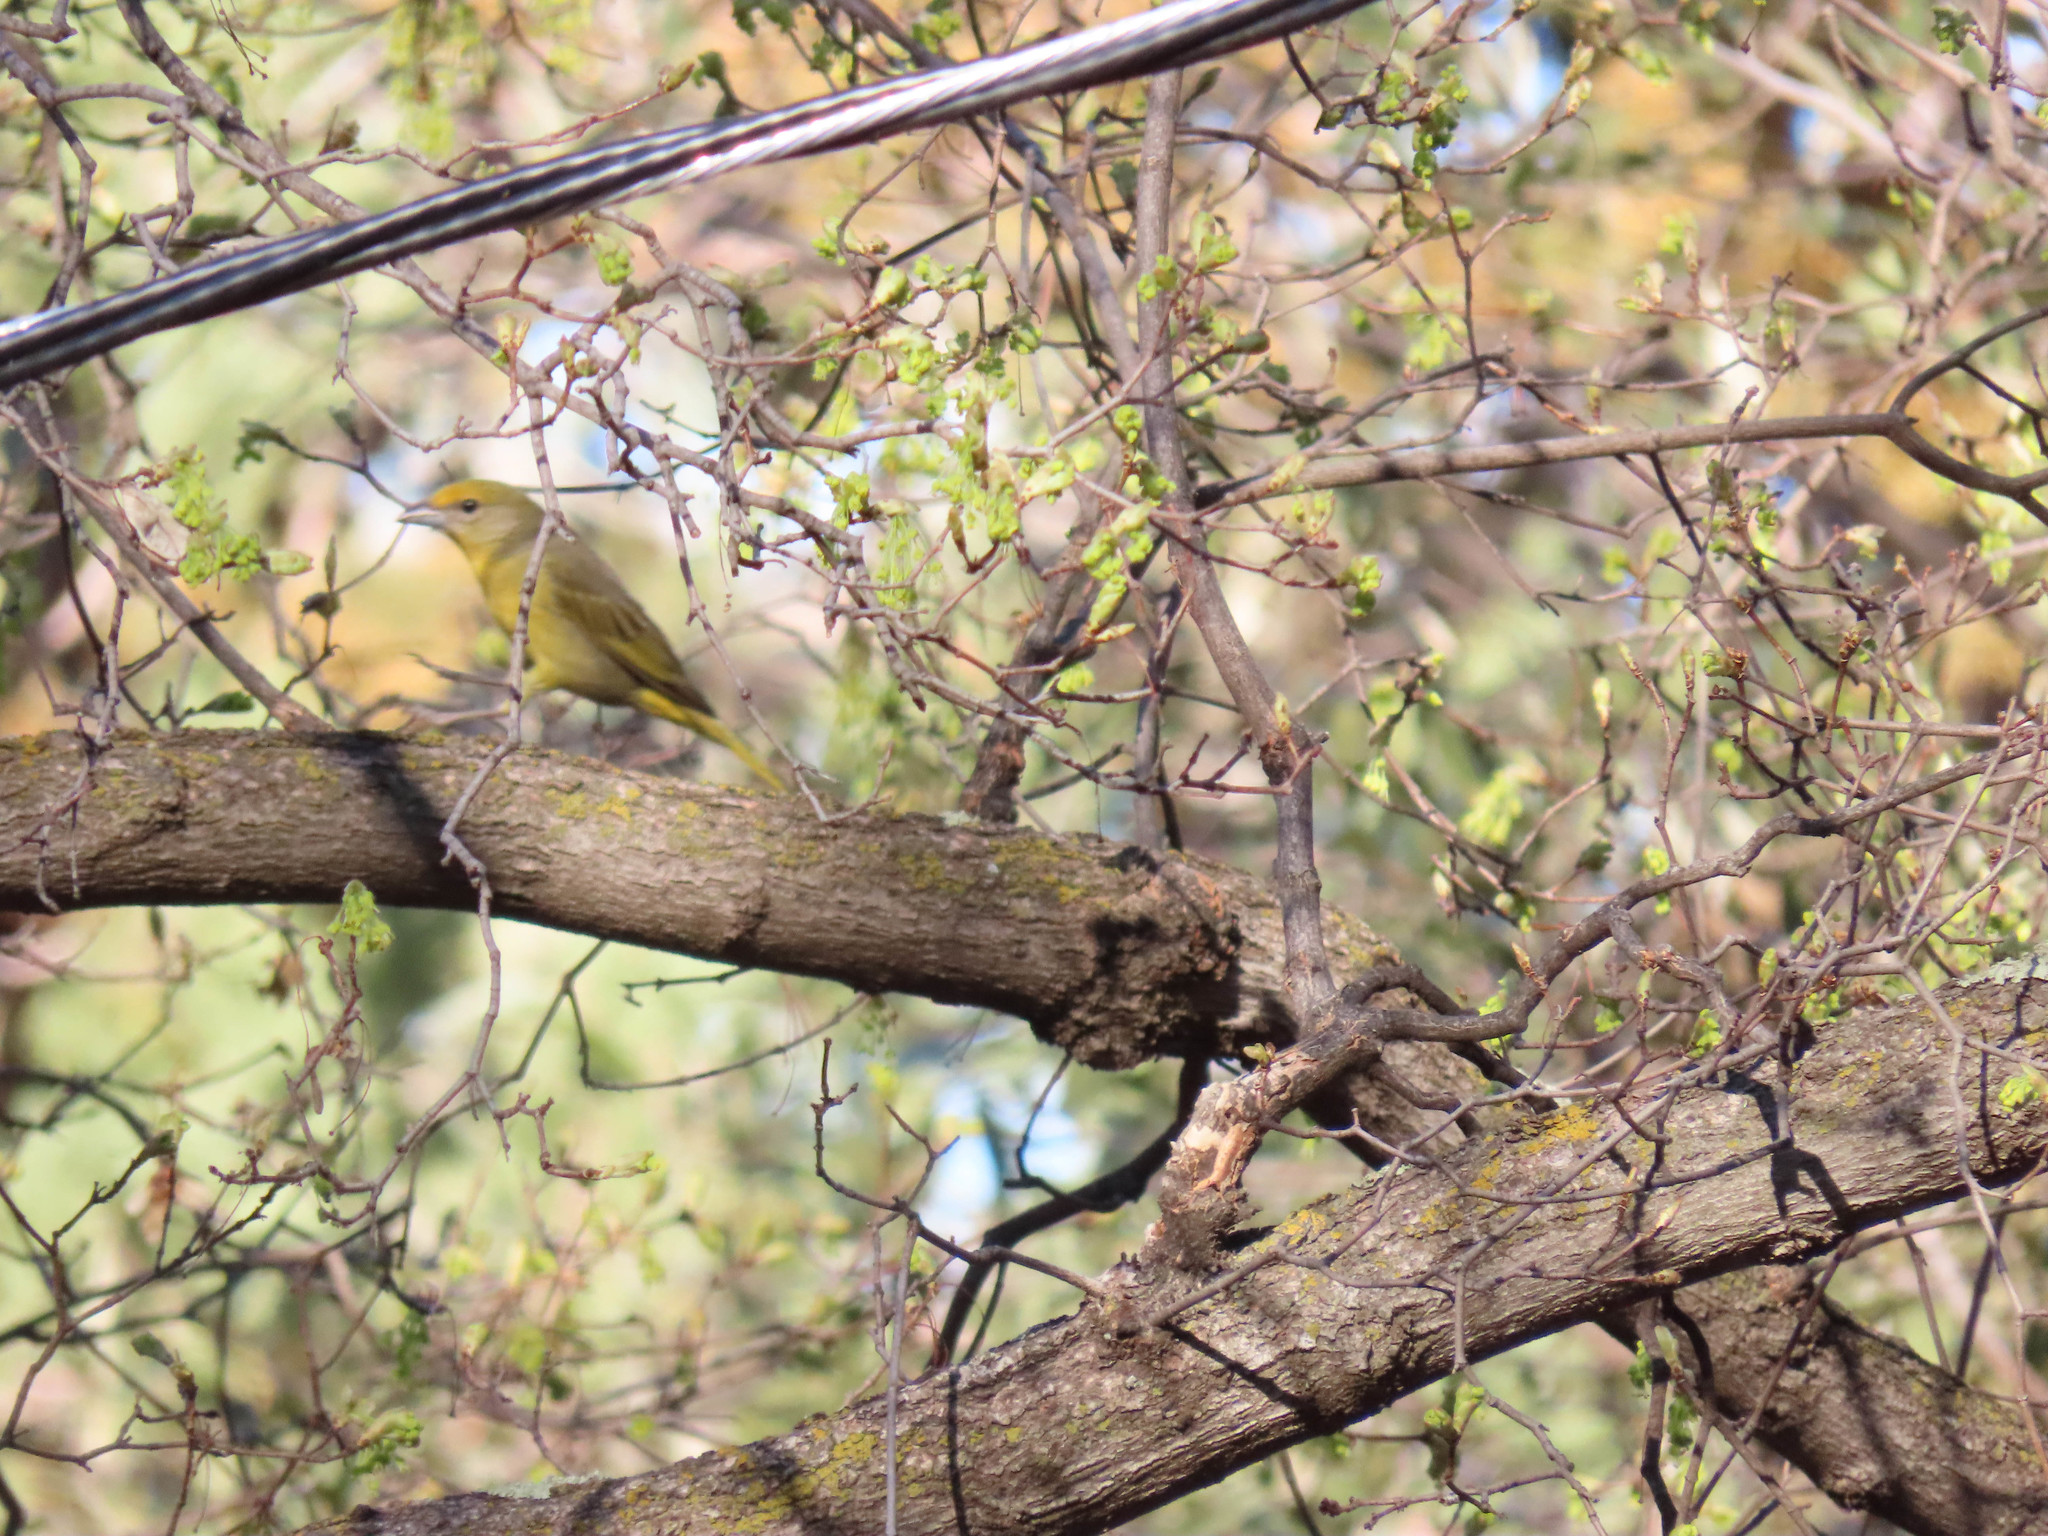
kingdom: Animalia
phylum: Chordata
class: Aves
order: Passeriformes
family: Cardinalidae
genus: Piranga
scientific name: Piranga flava
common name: Red tanager
